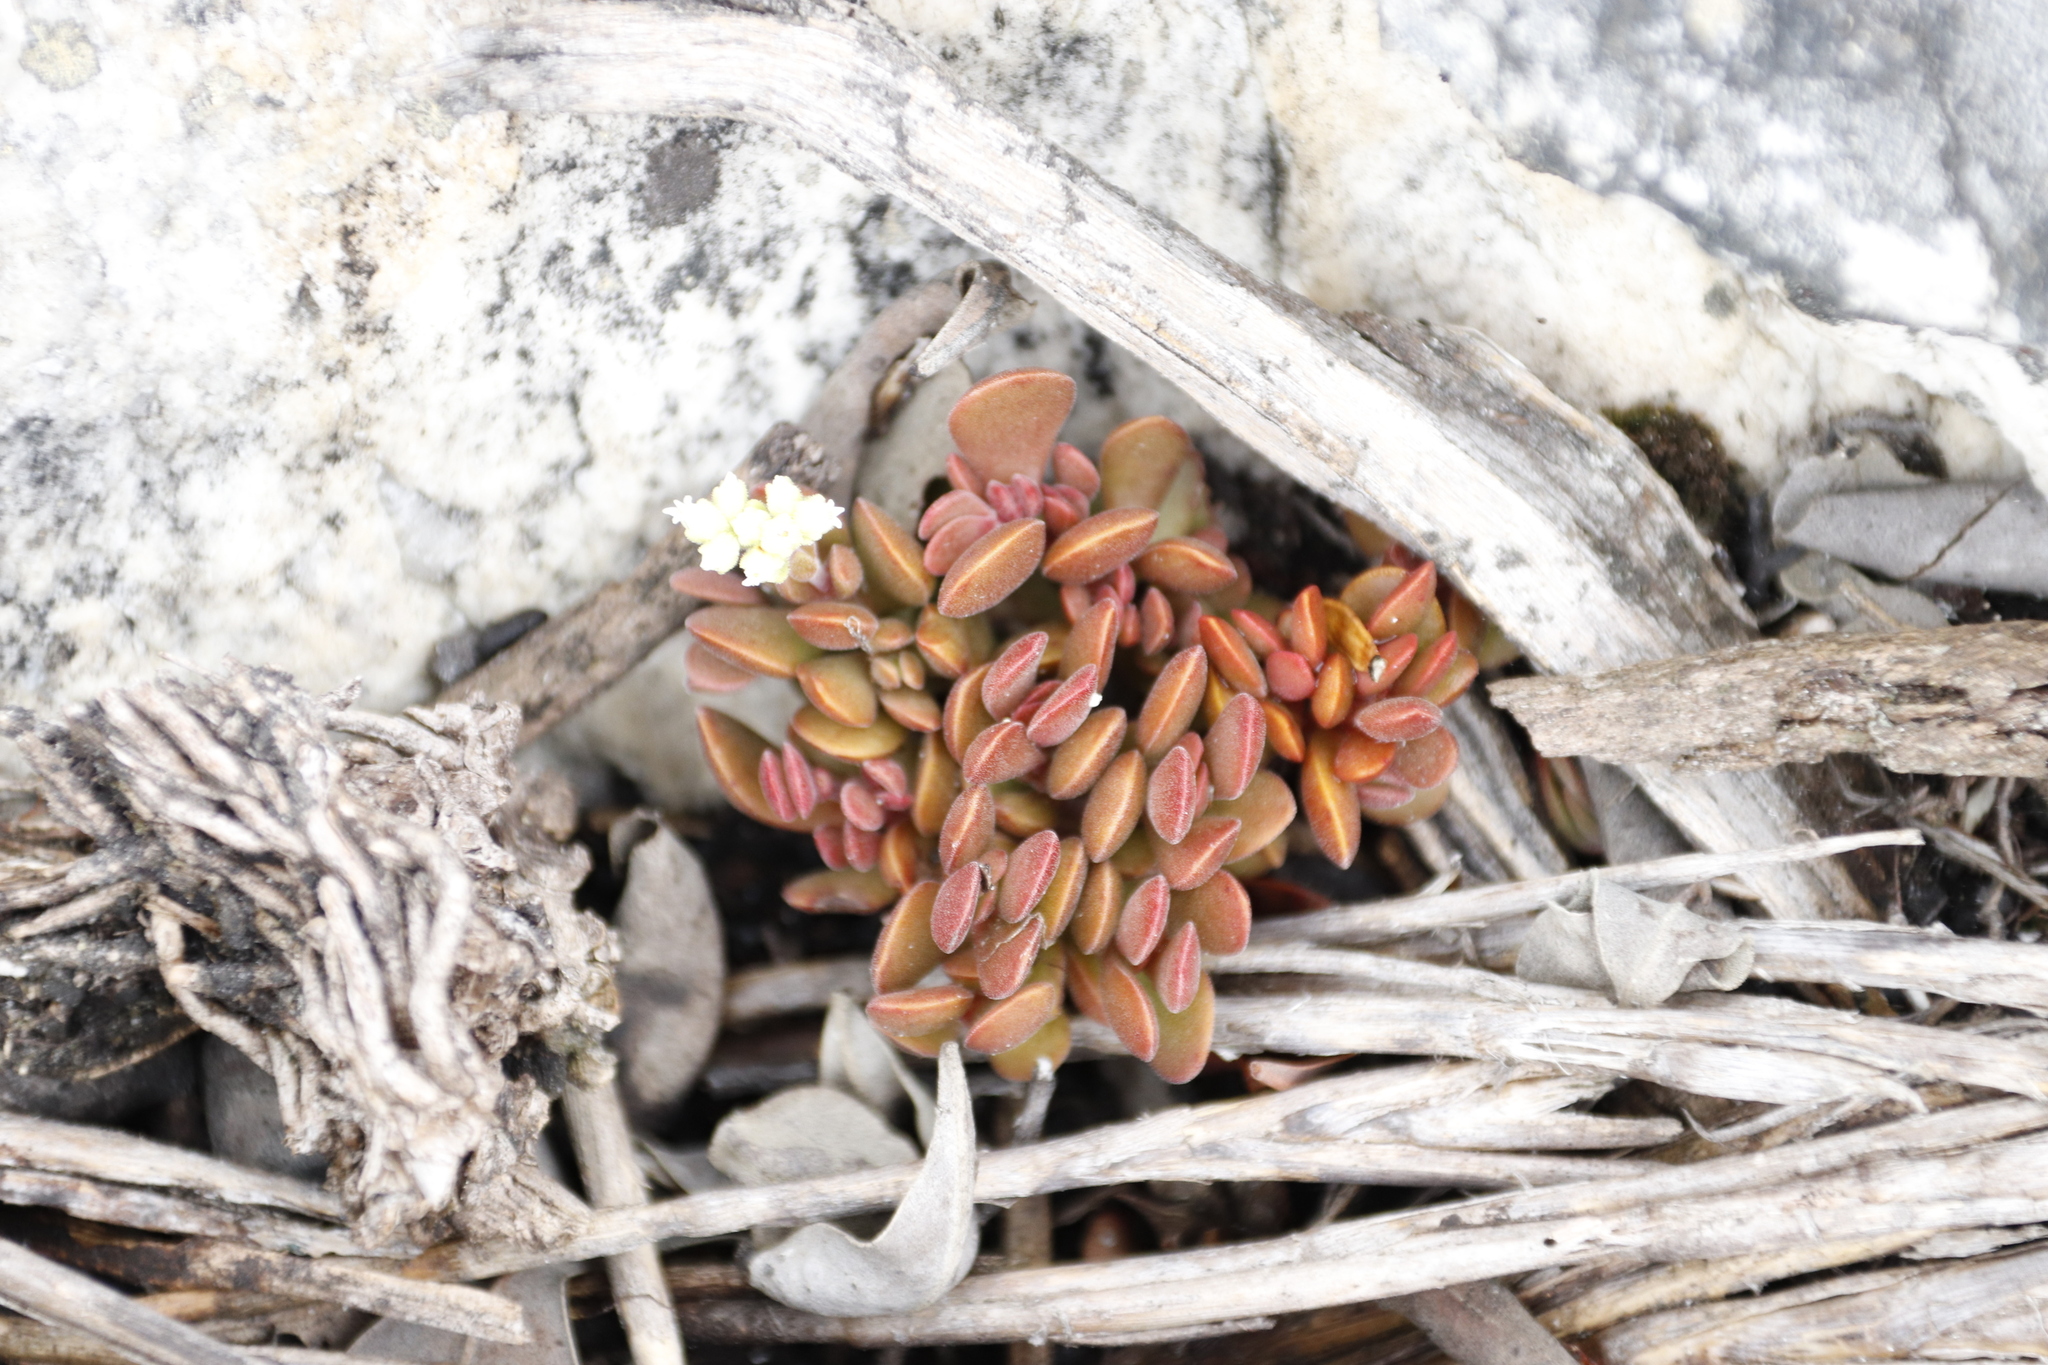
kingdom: Plantae
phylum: Tracheophyta
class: Magnoliopsida
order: Saxifragales
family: Crassulaceae
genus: Crassula
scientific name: Crassula pubescens
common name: Jersey pigmyweed
